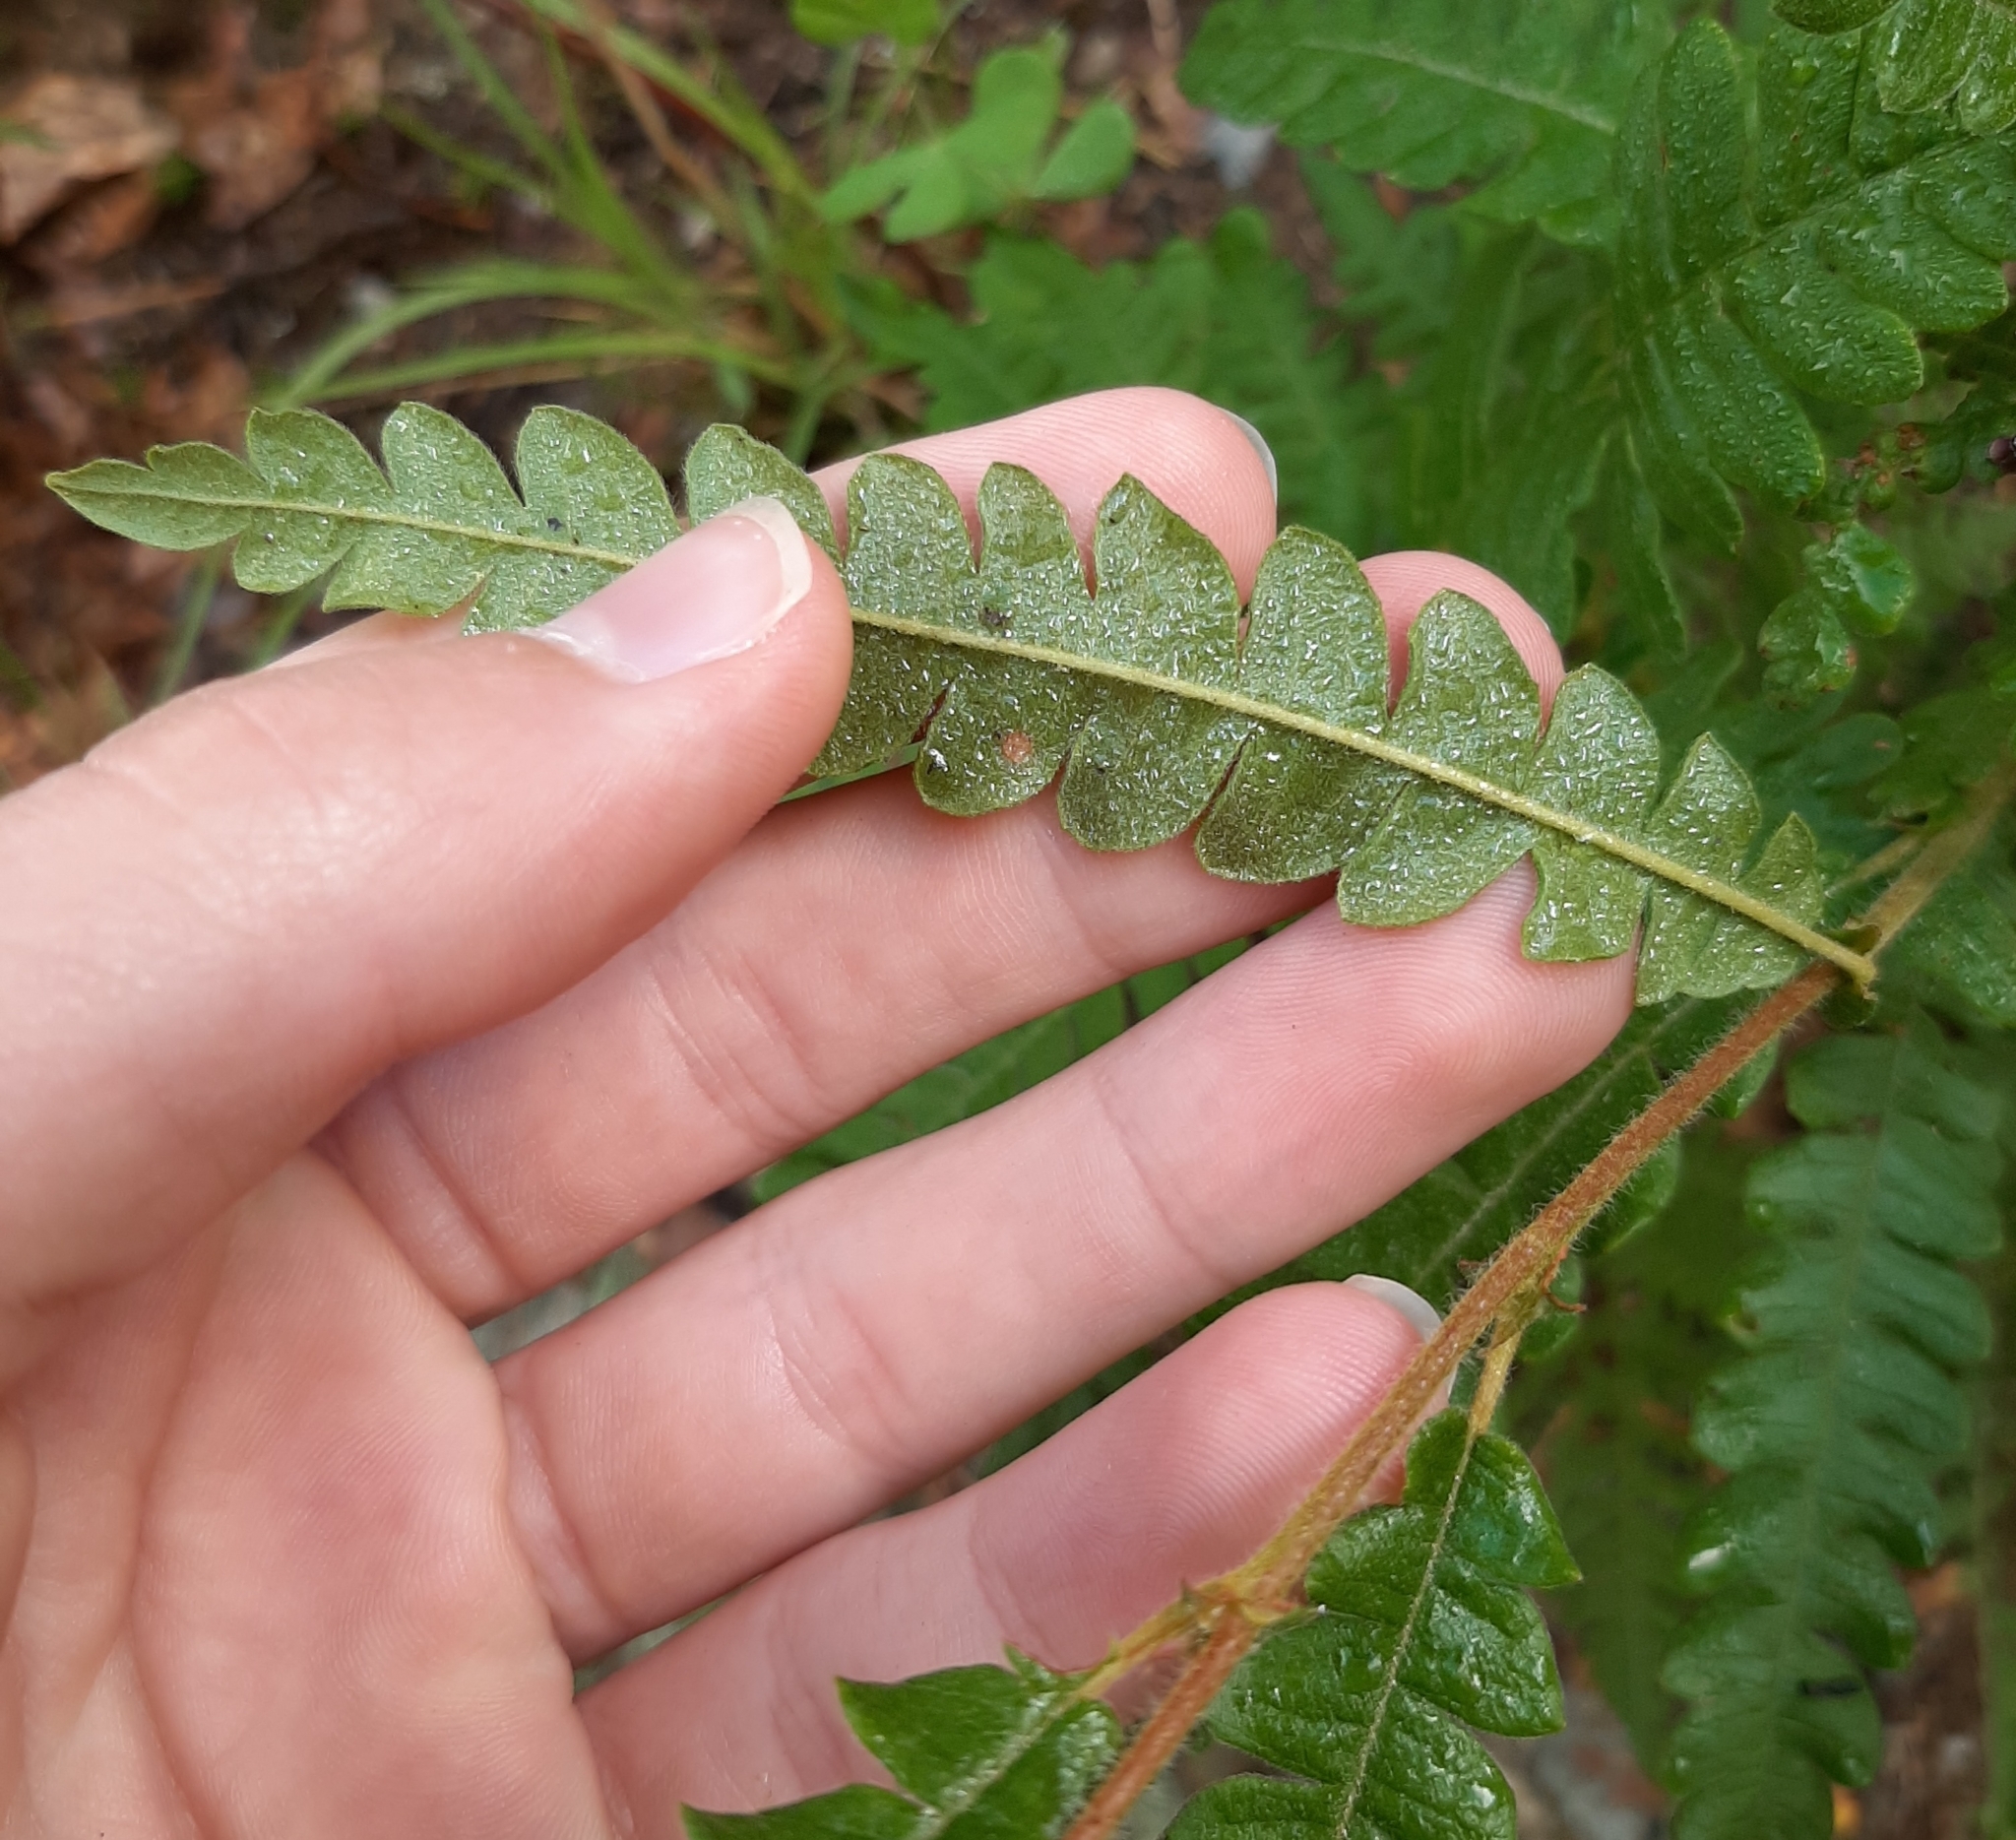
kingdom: Plantae
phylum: Tracheophyta
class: Magnoliopsida
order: Fagales
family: Myricaceae
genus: Comptonia
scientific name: Comptonia peregrina
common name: Sweet-fern
